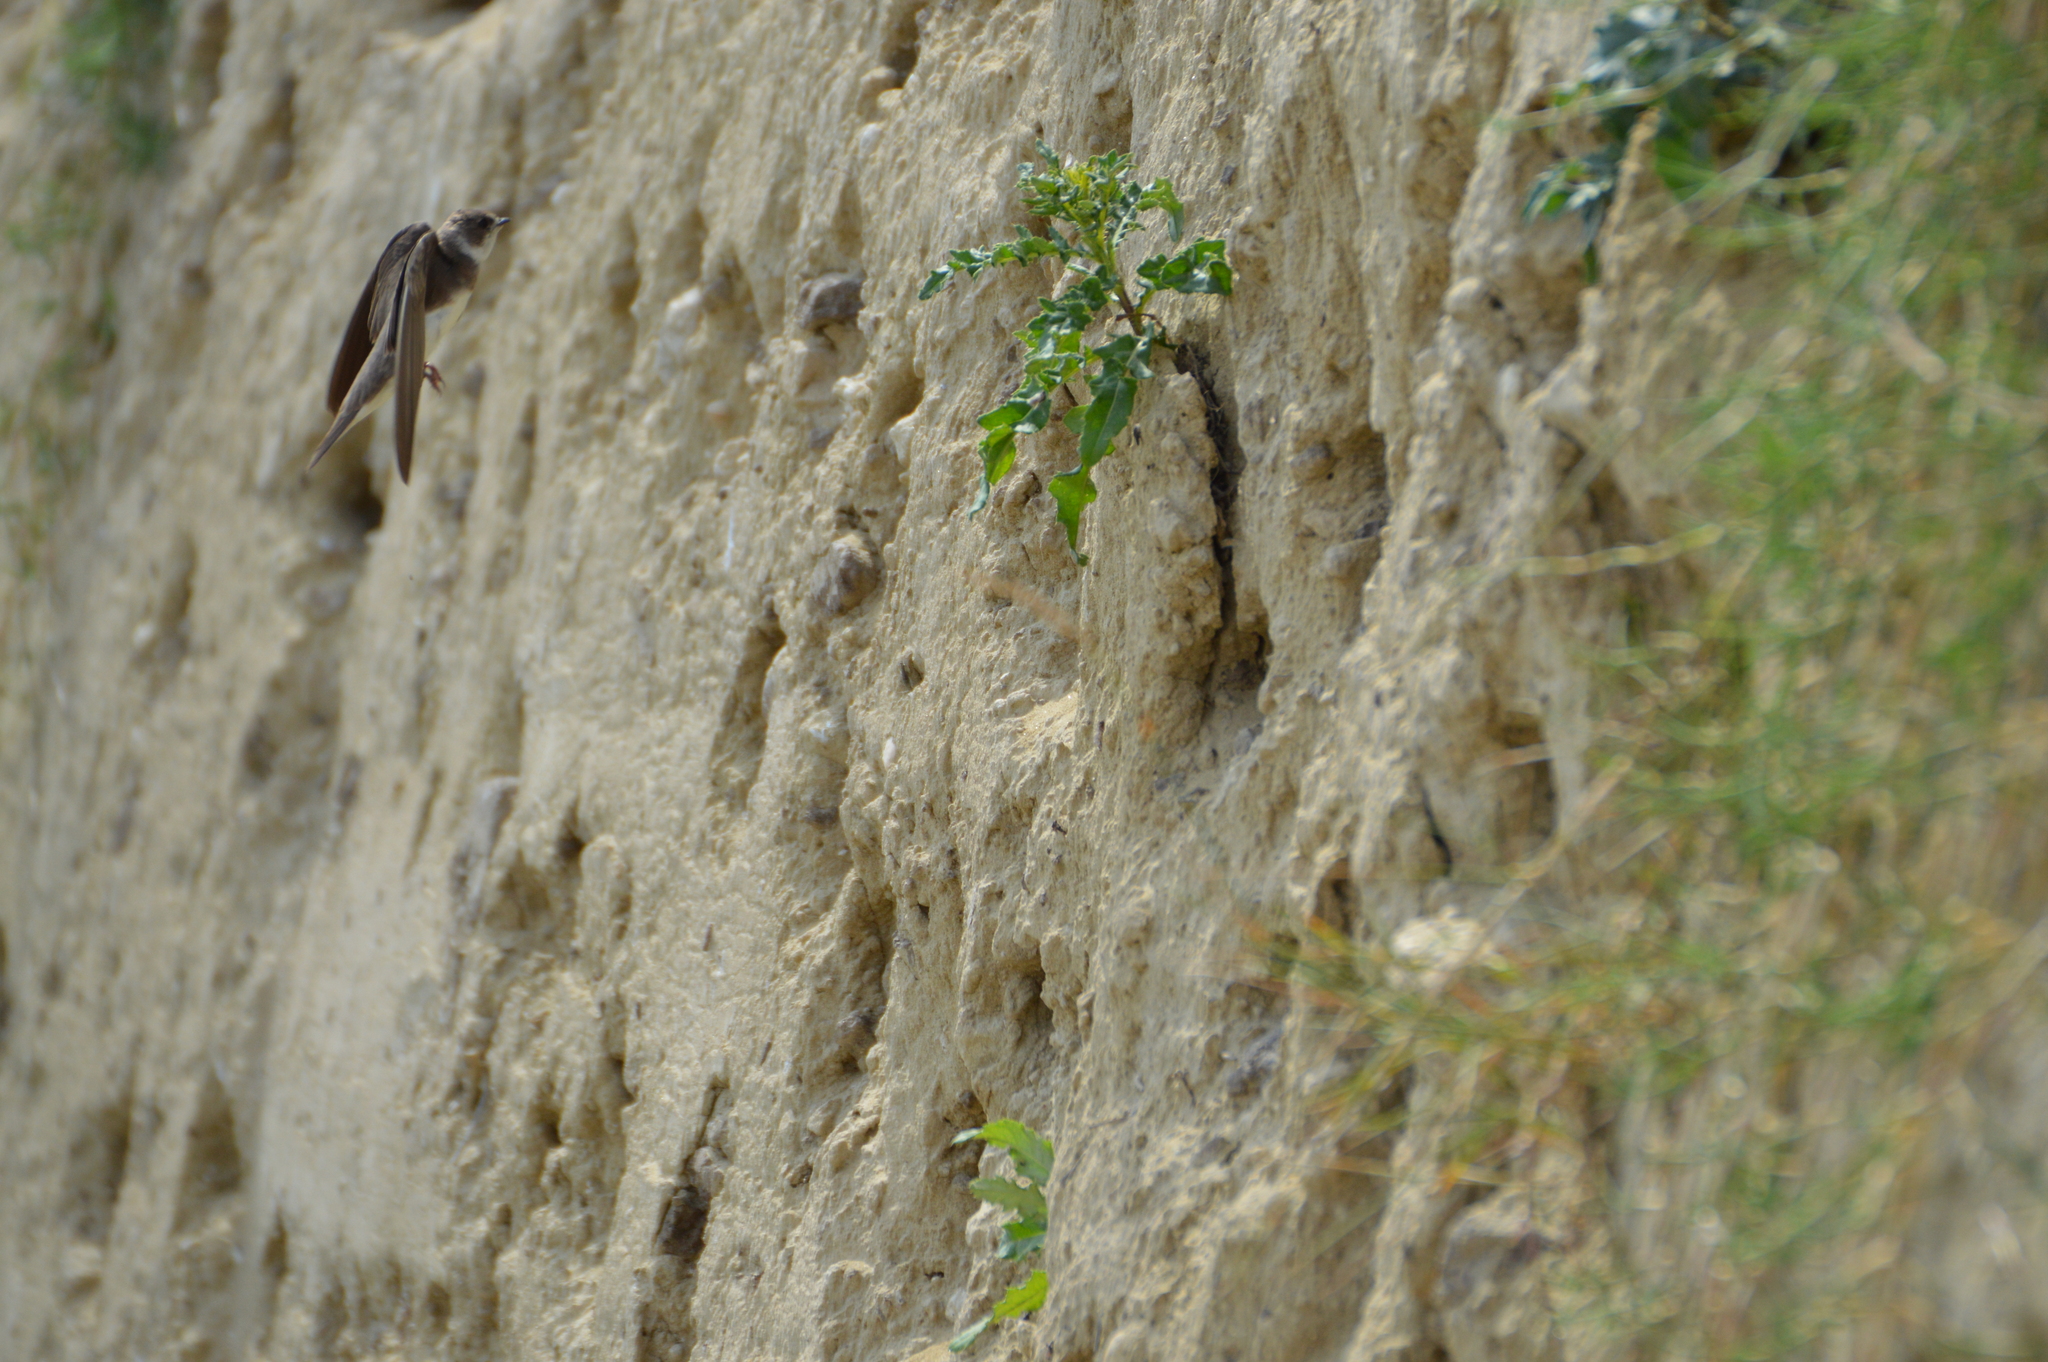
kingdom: Animalia
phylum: Chordata
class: Aves
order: Passeriformes
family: Hirundinidae
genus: Riparia
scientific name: Riparia riparia
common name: Sand martin
